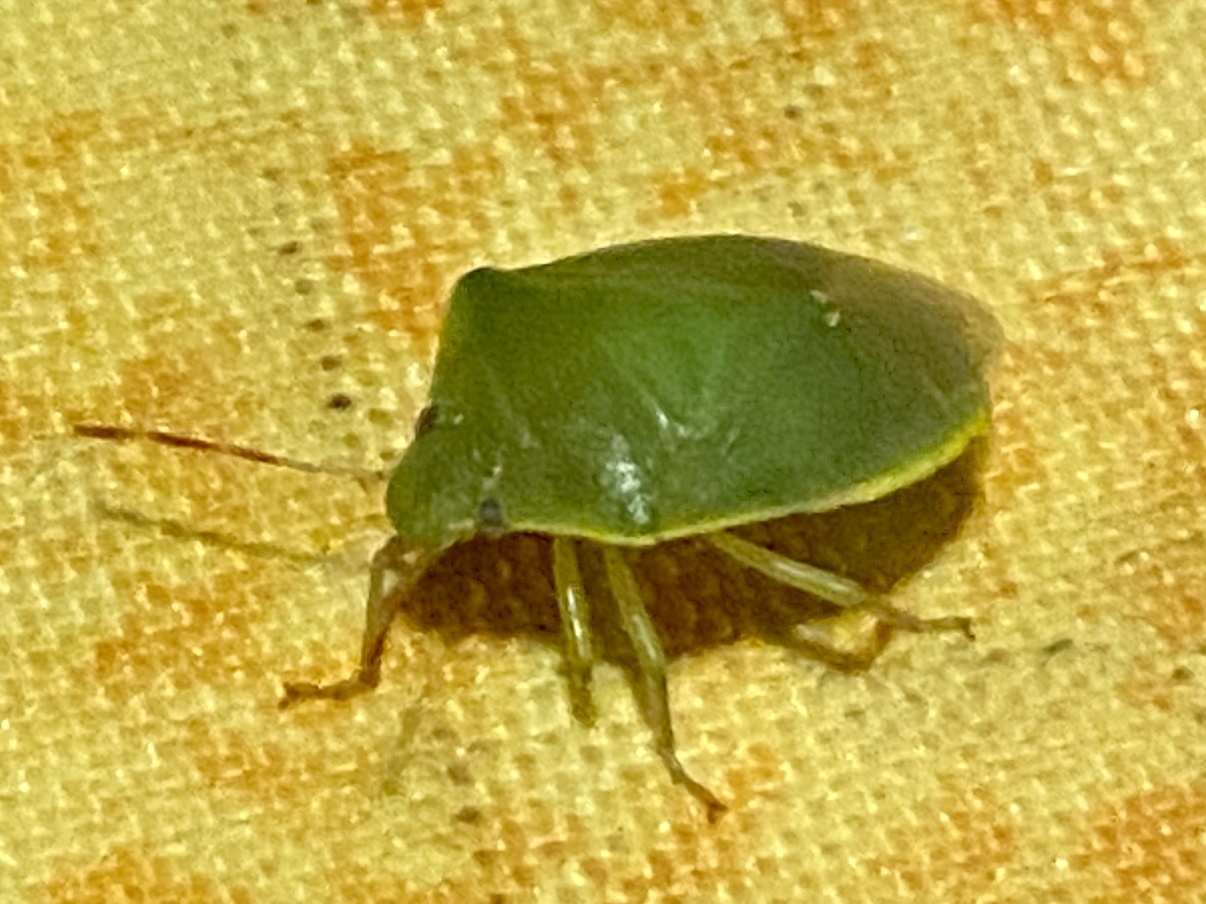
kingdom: Animalia
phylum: Arthropoda
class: Insecta
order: Hemiptera
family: Pentatomidae
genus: Acrosternum
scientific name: Acrosternum heegeri
